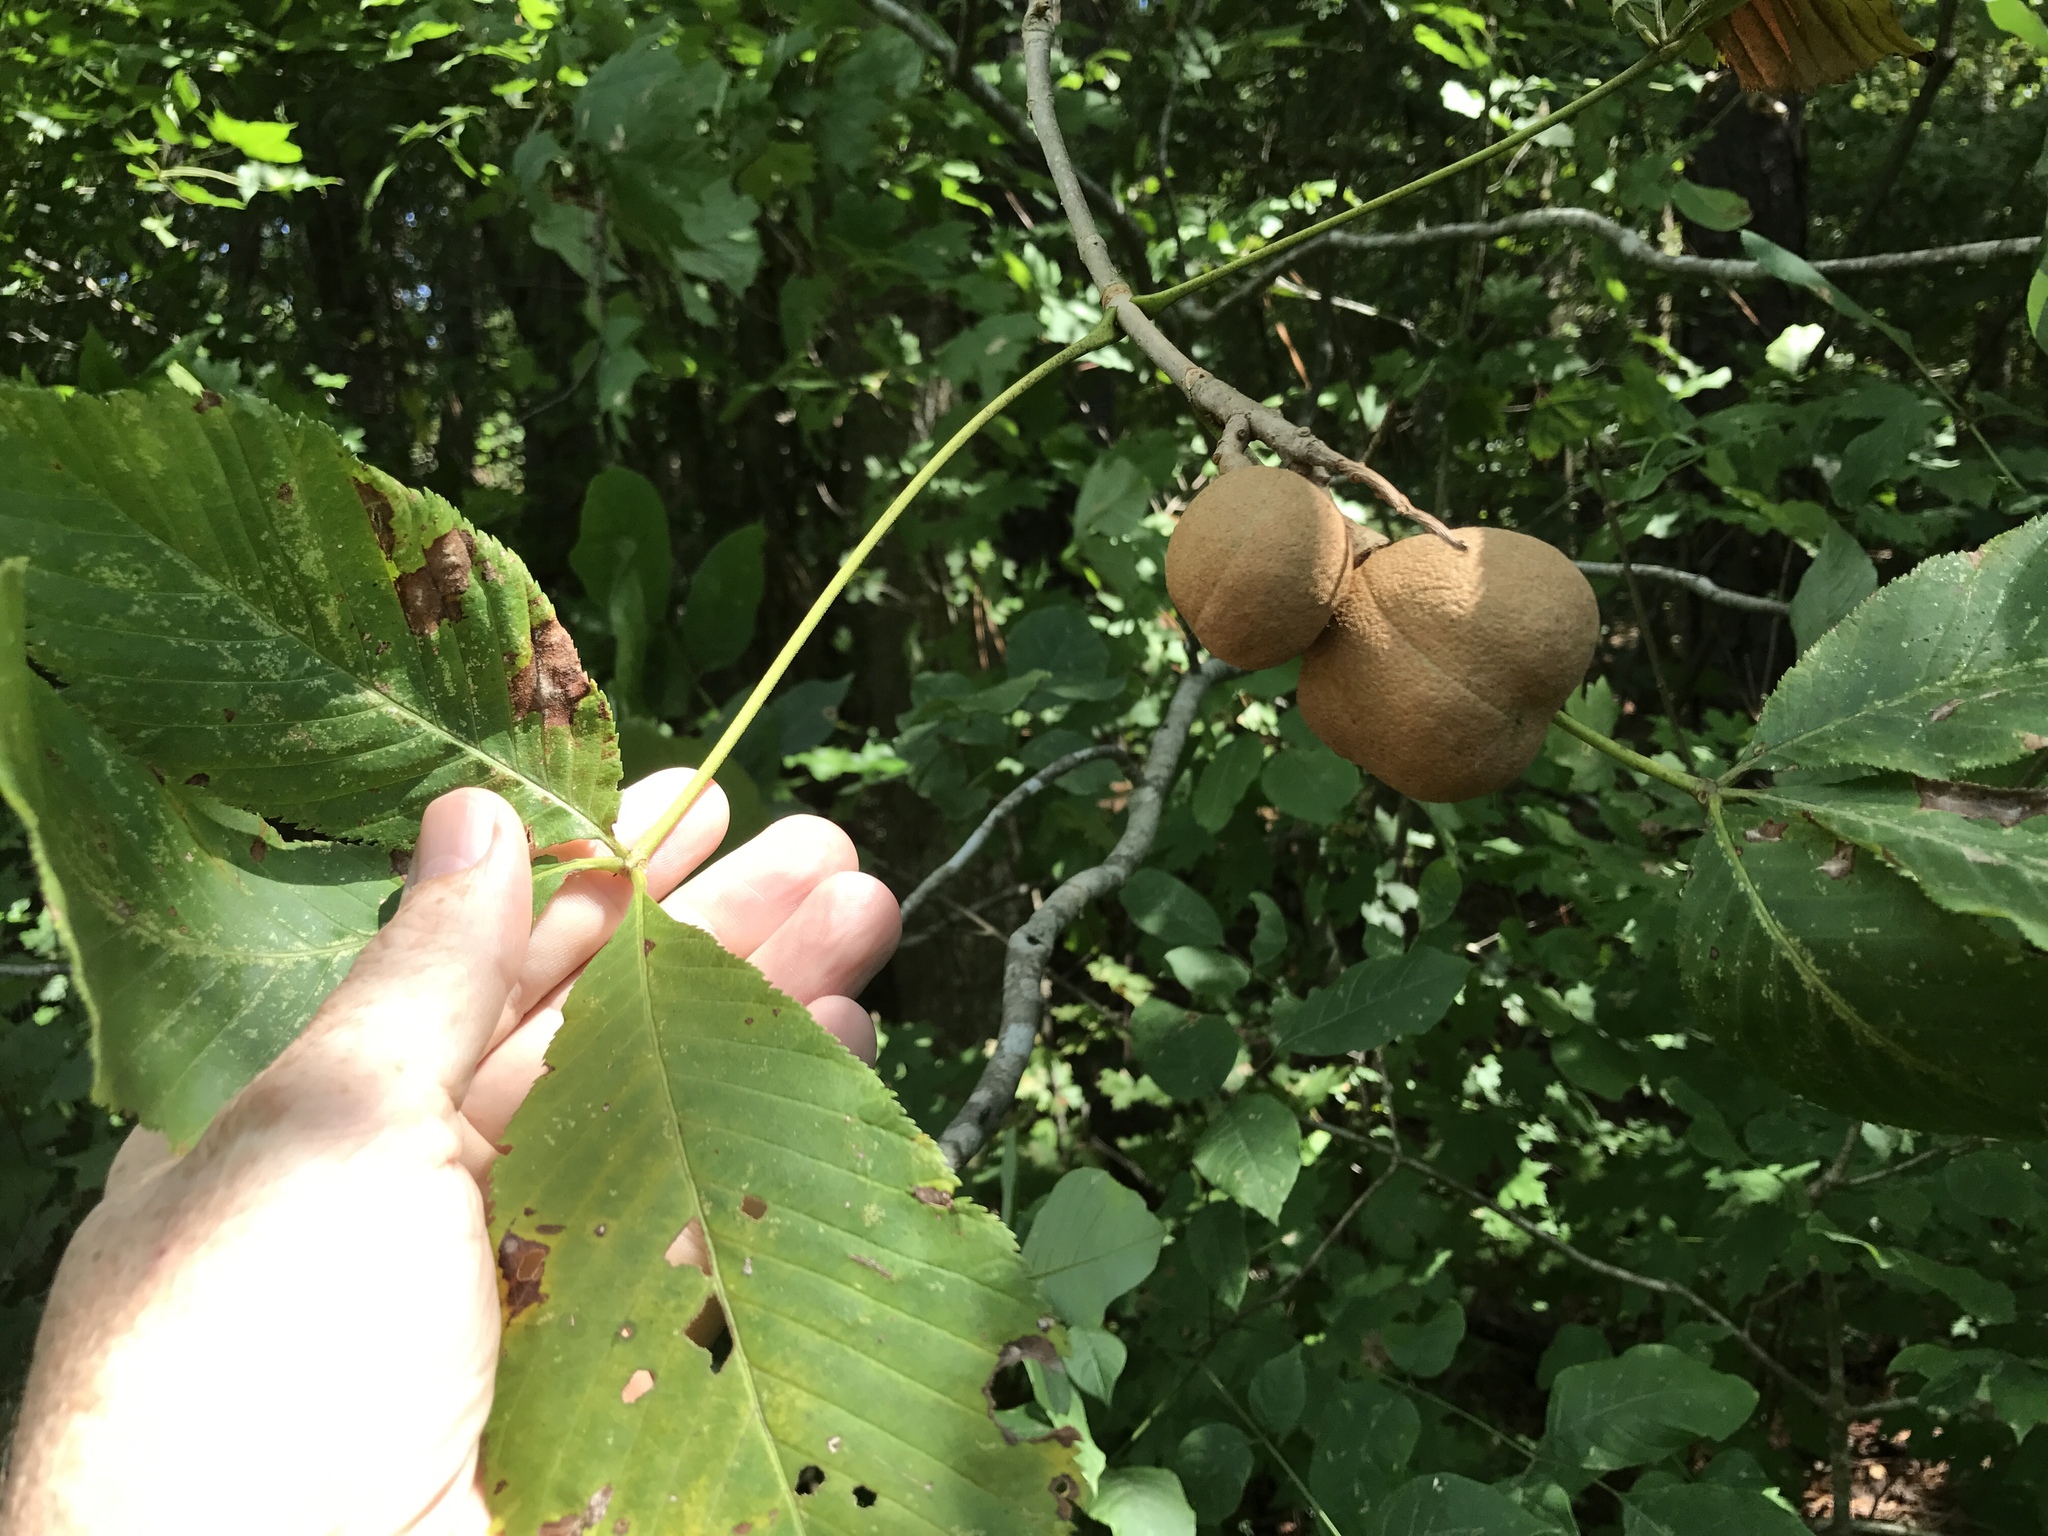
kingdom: Plantae
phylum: Tracheophyta
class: Magnoliopsida
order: Sapindales
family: Sapindaceae
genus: Aesculus
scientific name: Aesculus sylvatica
